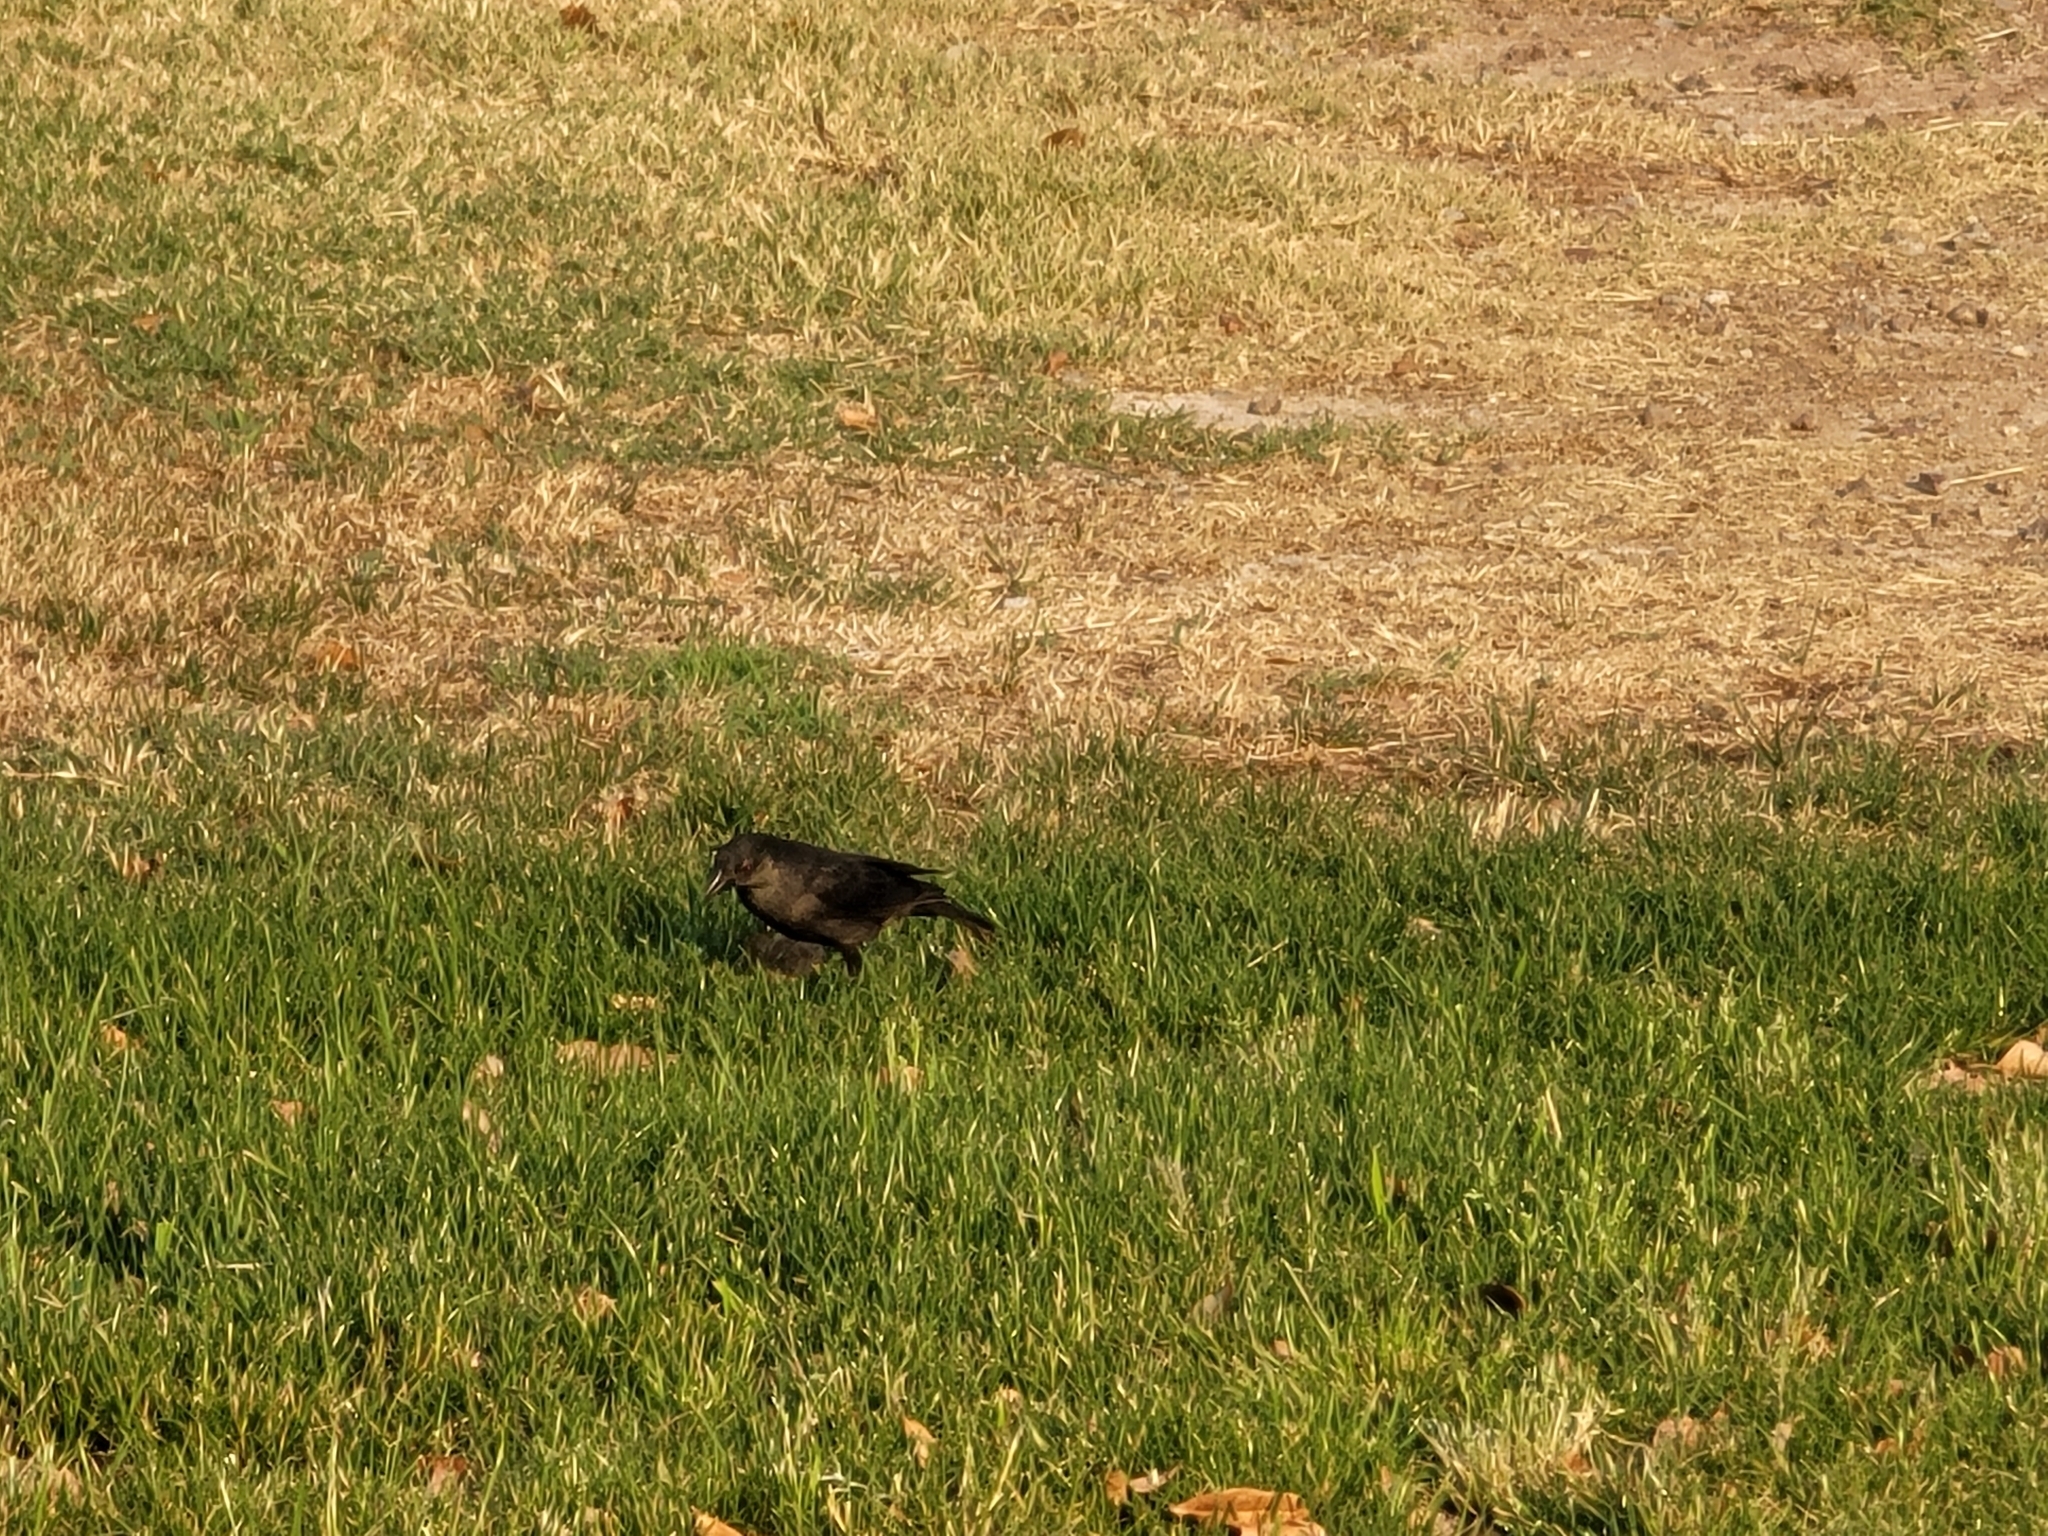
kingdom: Animalia
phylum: Chordata
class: Aves
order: Passeriformes
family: Icteridae
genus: Molothrus
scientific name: Molothrus aeneus
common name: Bronzed cowbird
